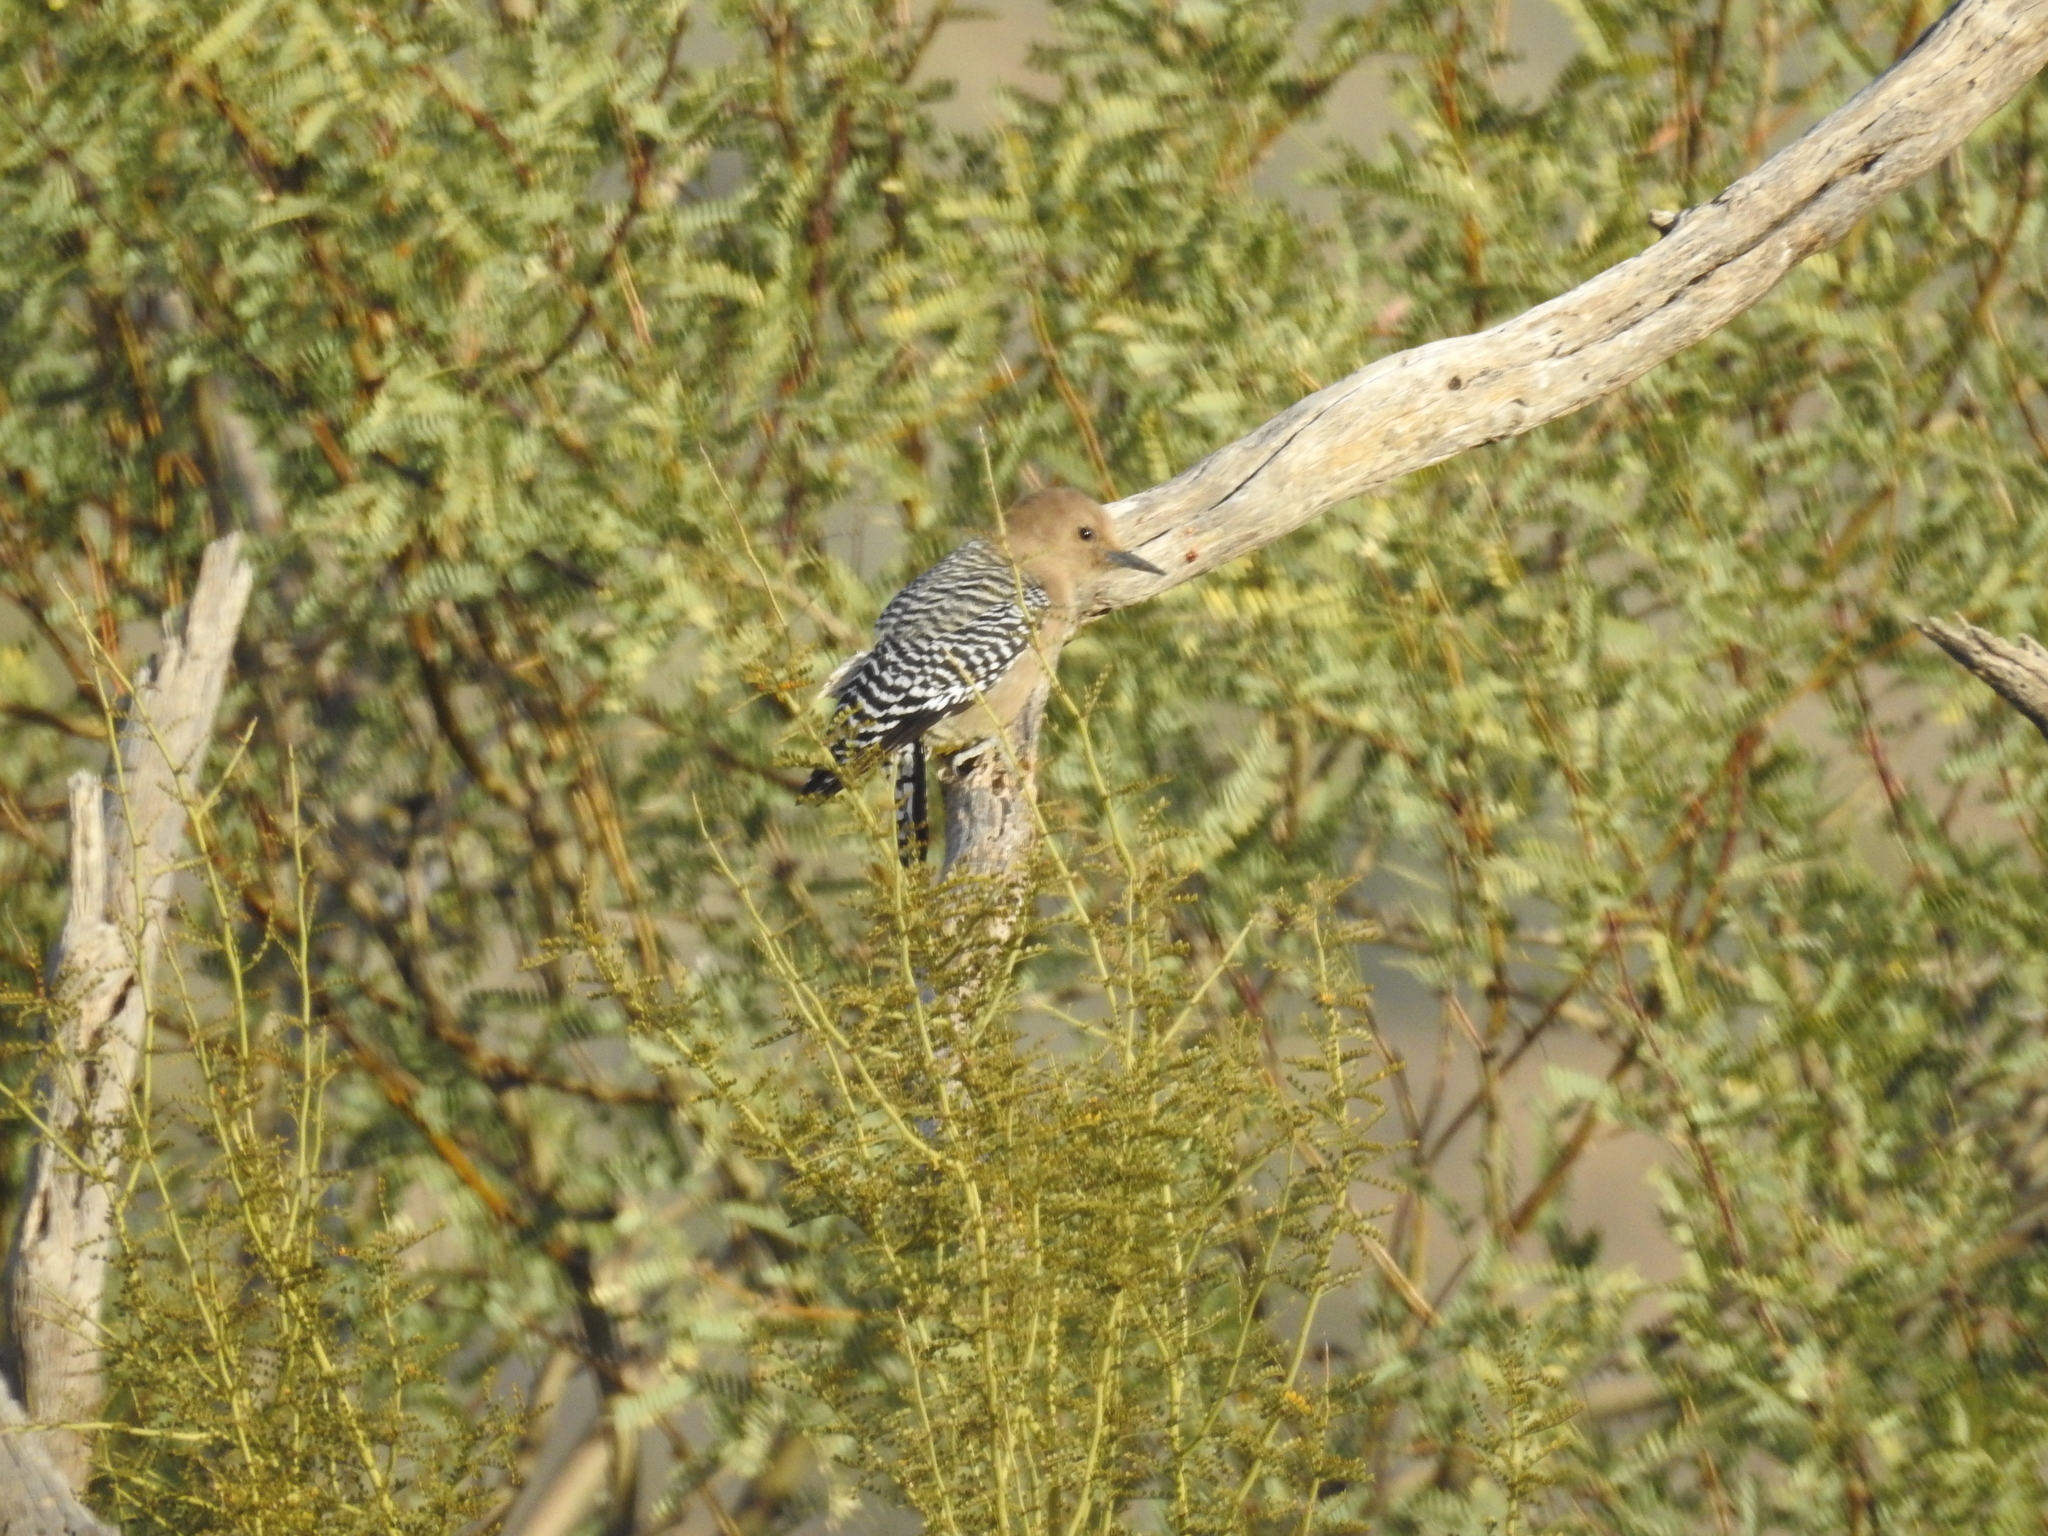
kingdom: Animalia
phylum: Chordata
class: Aves
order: Piciformes
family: Picidae
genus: Melanerpes
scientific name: Melanerpes uropygialis
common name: Gila woodpecker
